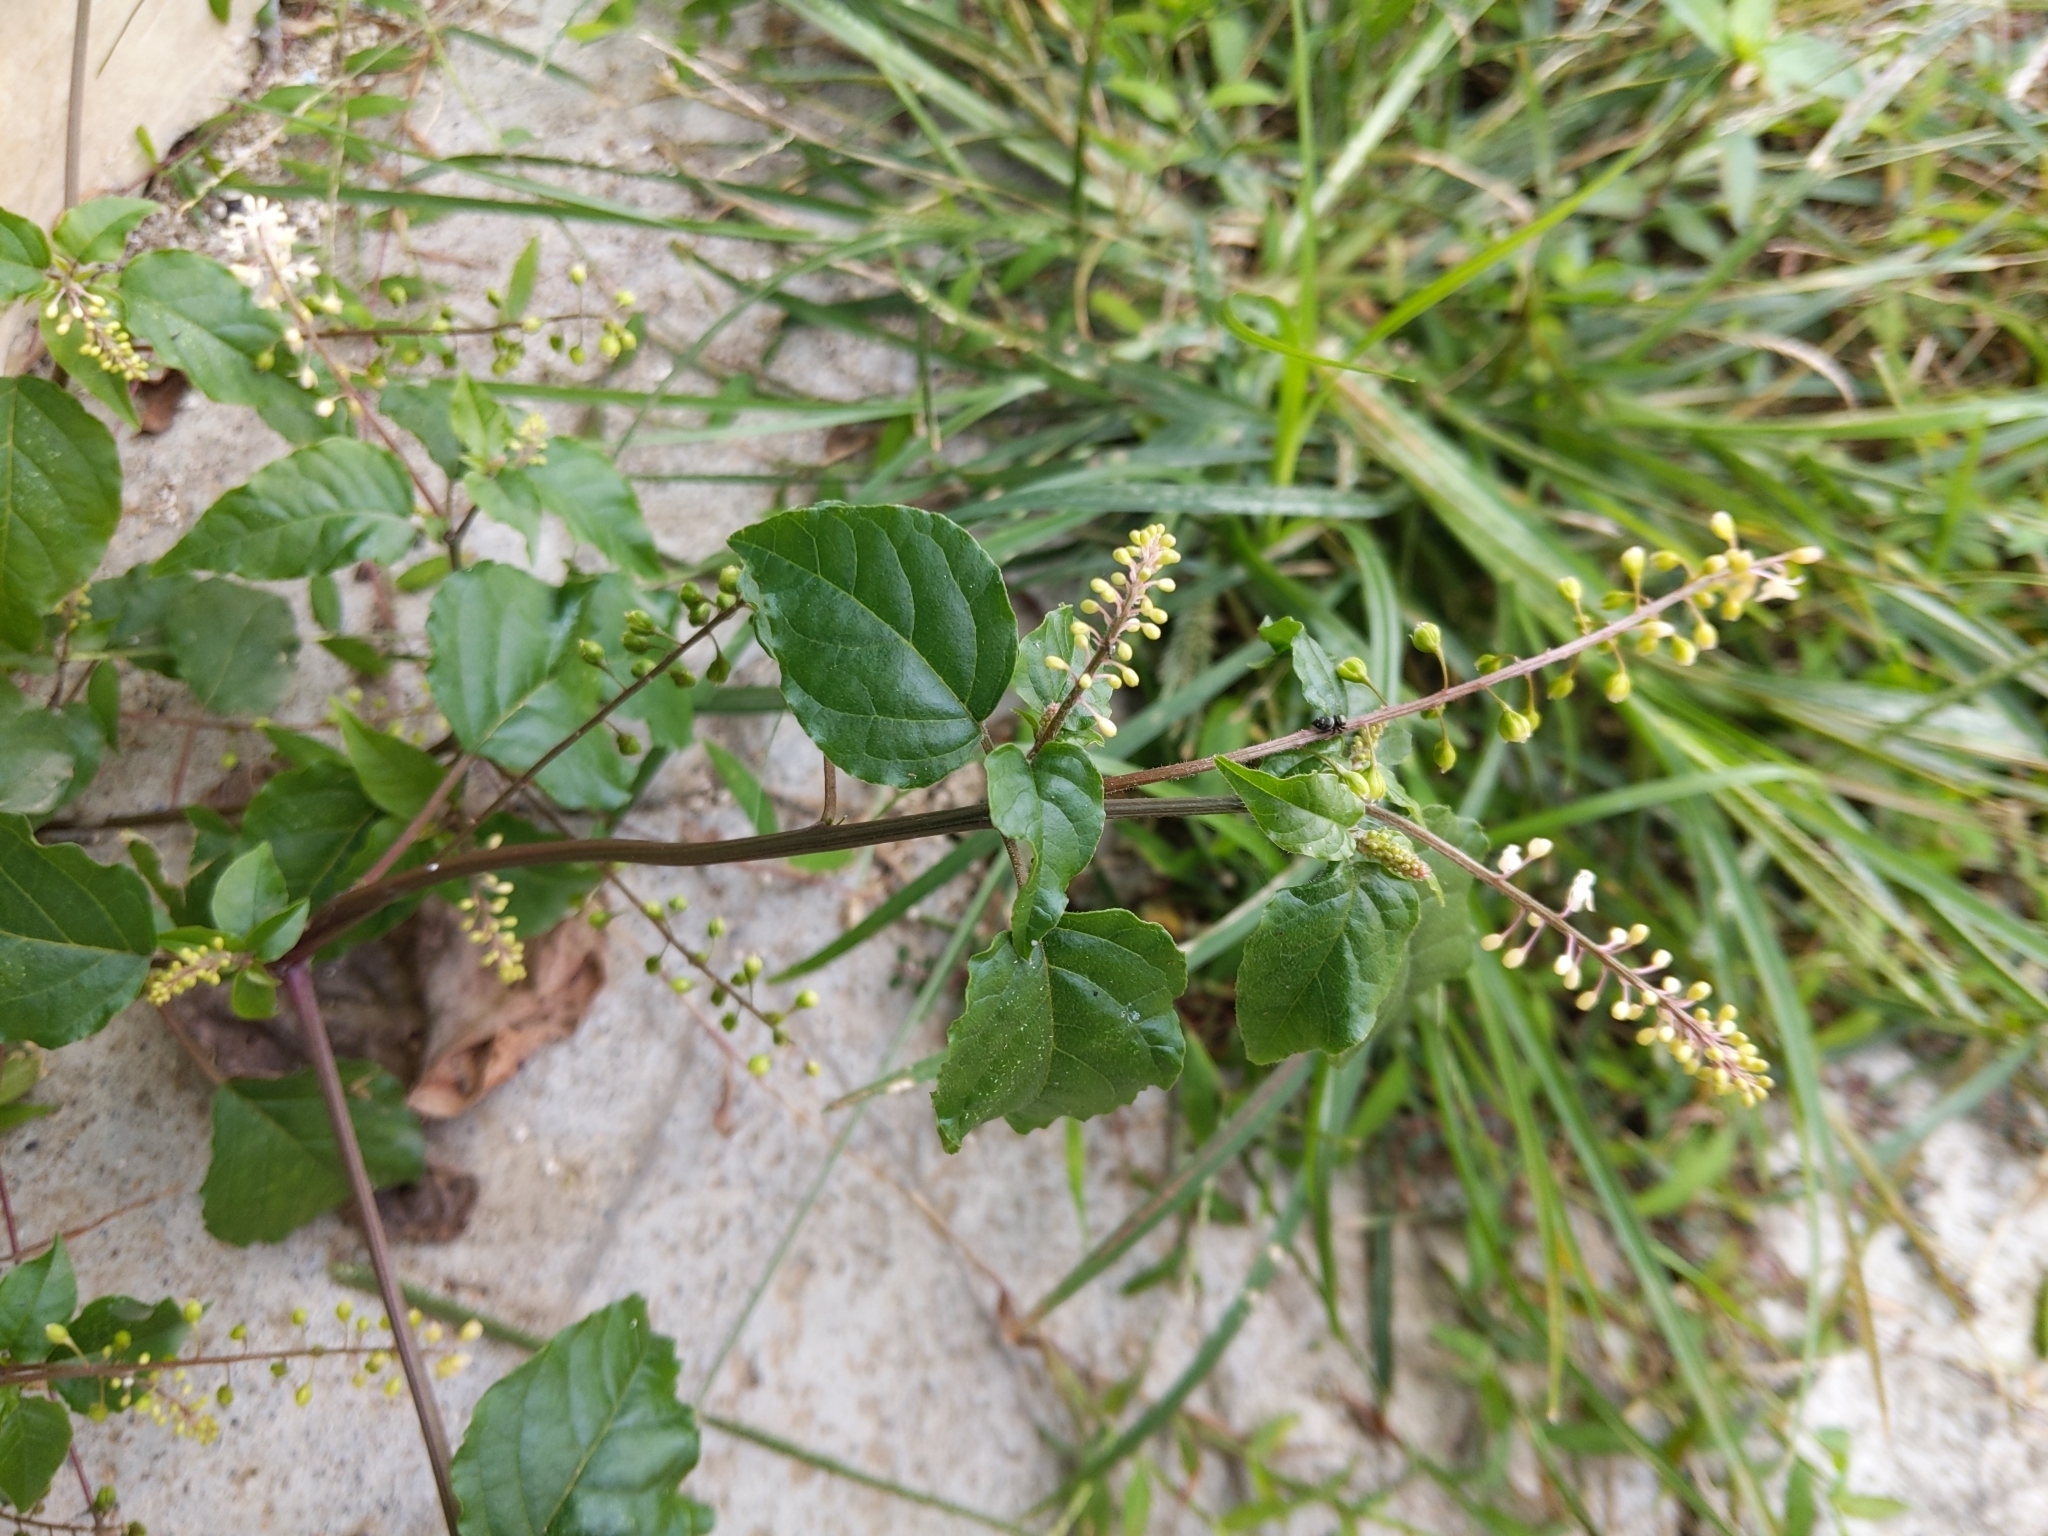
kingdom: Plantae
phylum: Tracheophyta
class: Magnoliopsida
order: Caryophyllales
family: Phytolaccaceae
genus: Rivina
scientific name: Rivina humilis
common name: Rougeplant
